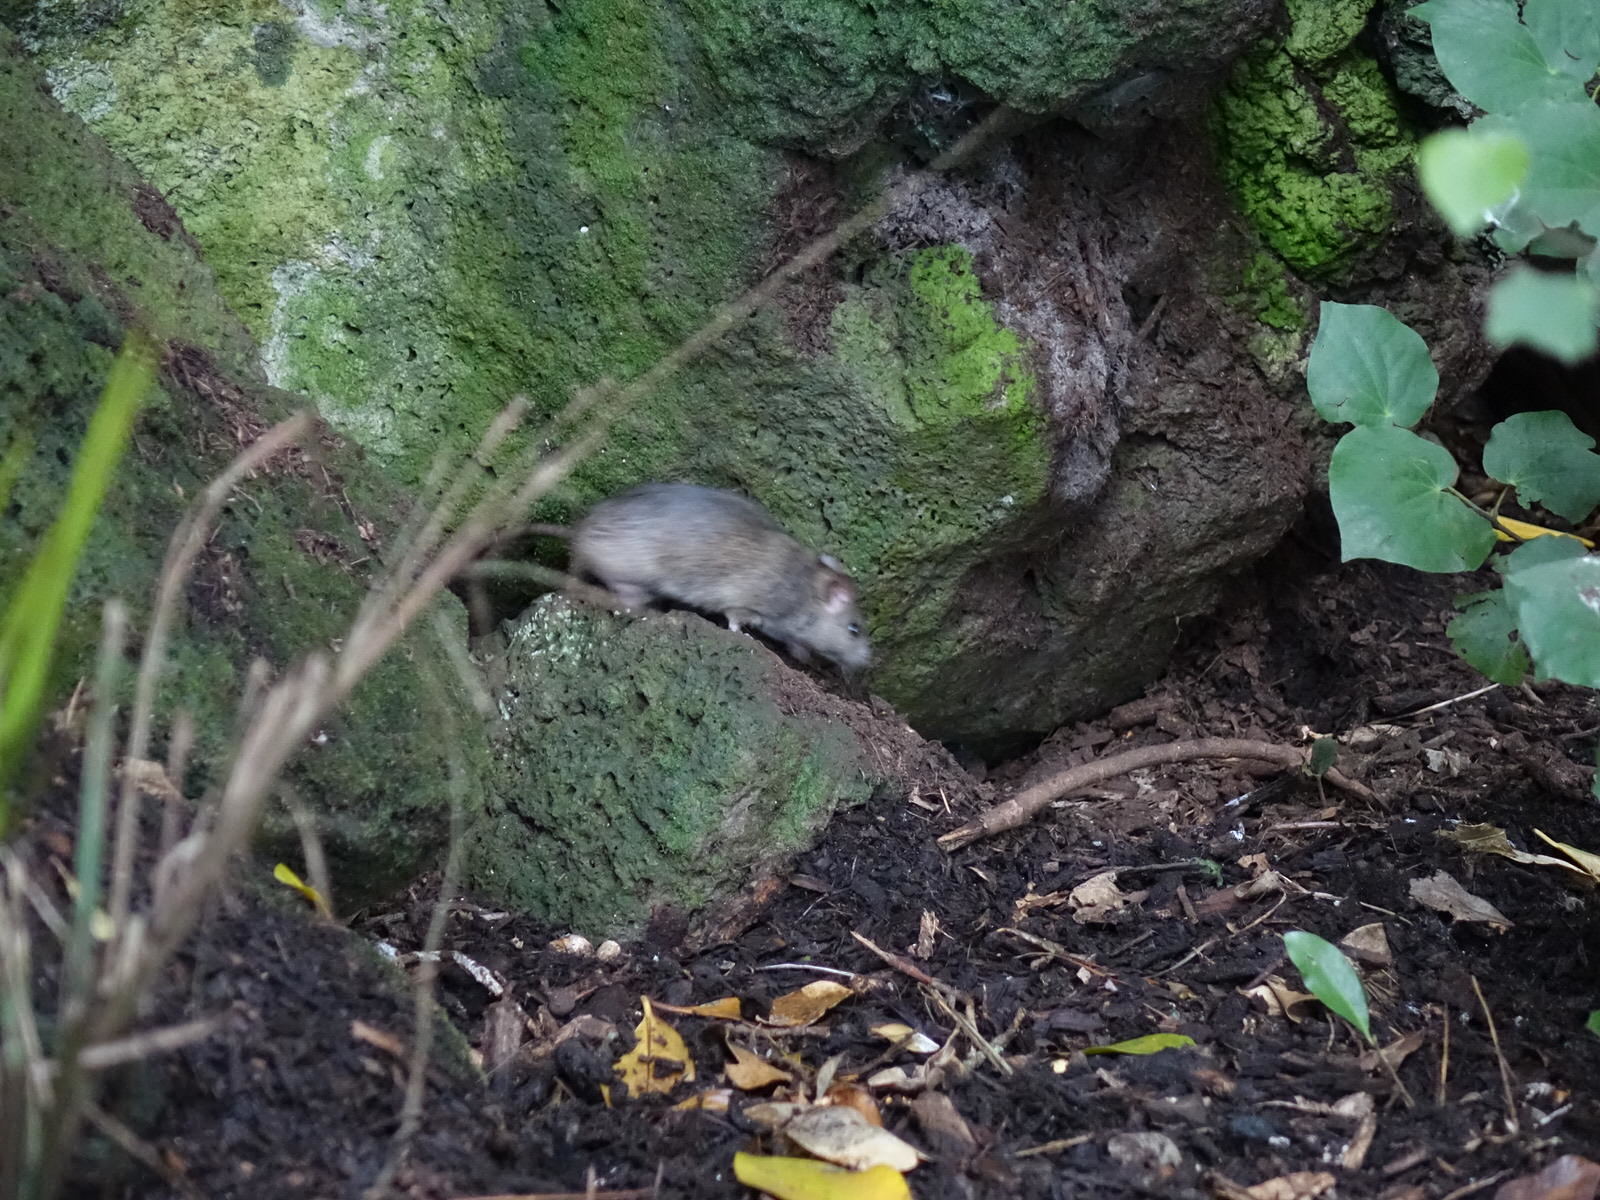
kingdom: Animalia
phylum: Chordata
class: Mammalia
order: Rodentia
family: Muridae
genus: Rattus
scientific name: Rattus rattus
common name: Black rat
